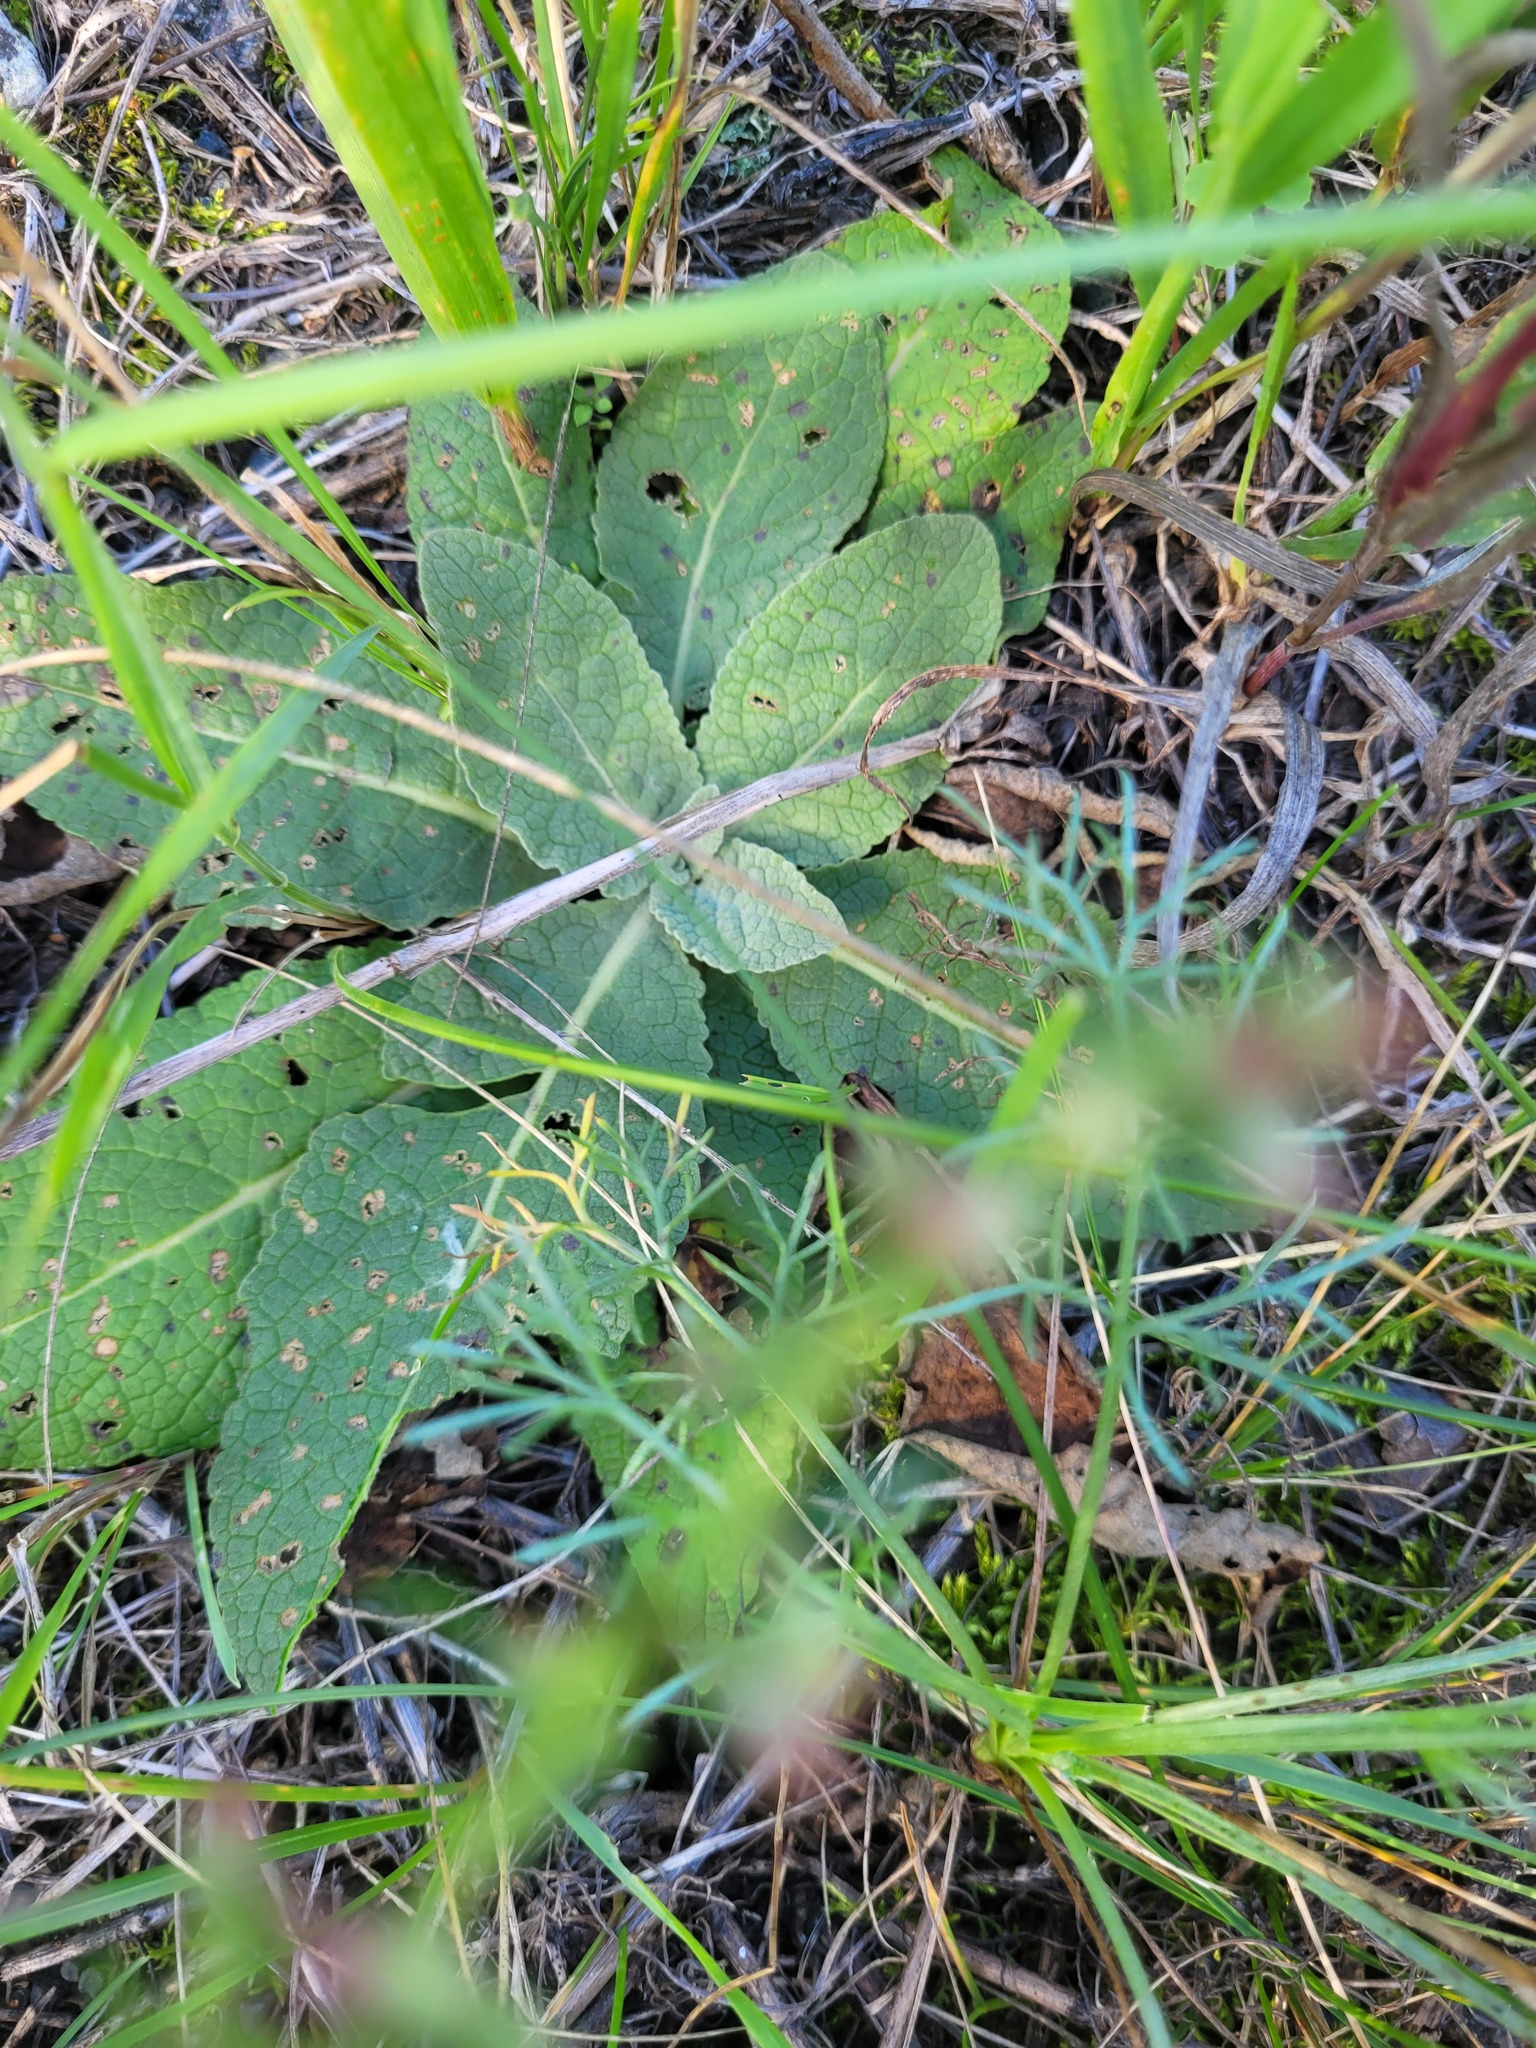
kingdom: Plantae
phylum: Tracheophyta
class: Magnoliopsida
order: Lamiales
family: Scrophulariaceae
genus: Verbascum
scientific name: Verbascum lychnitis
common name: White mullein
